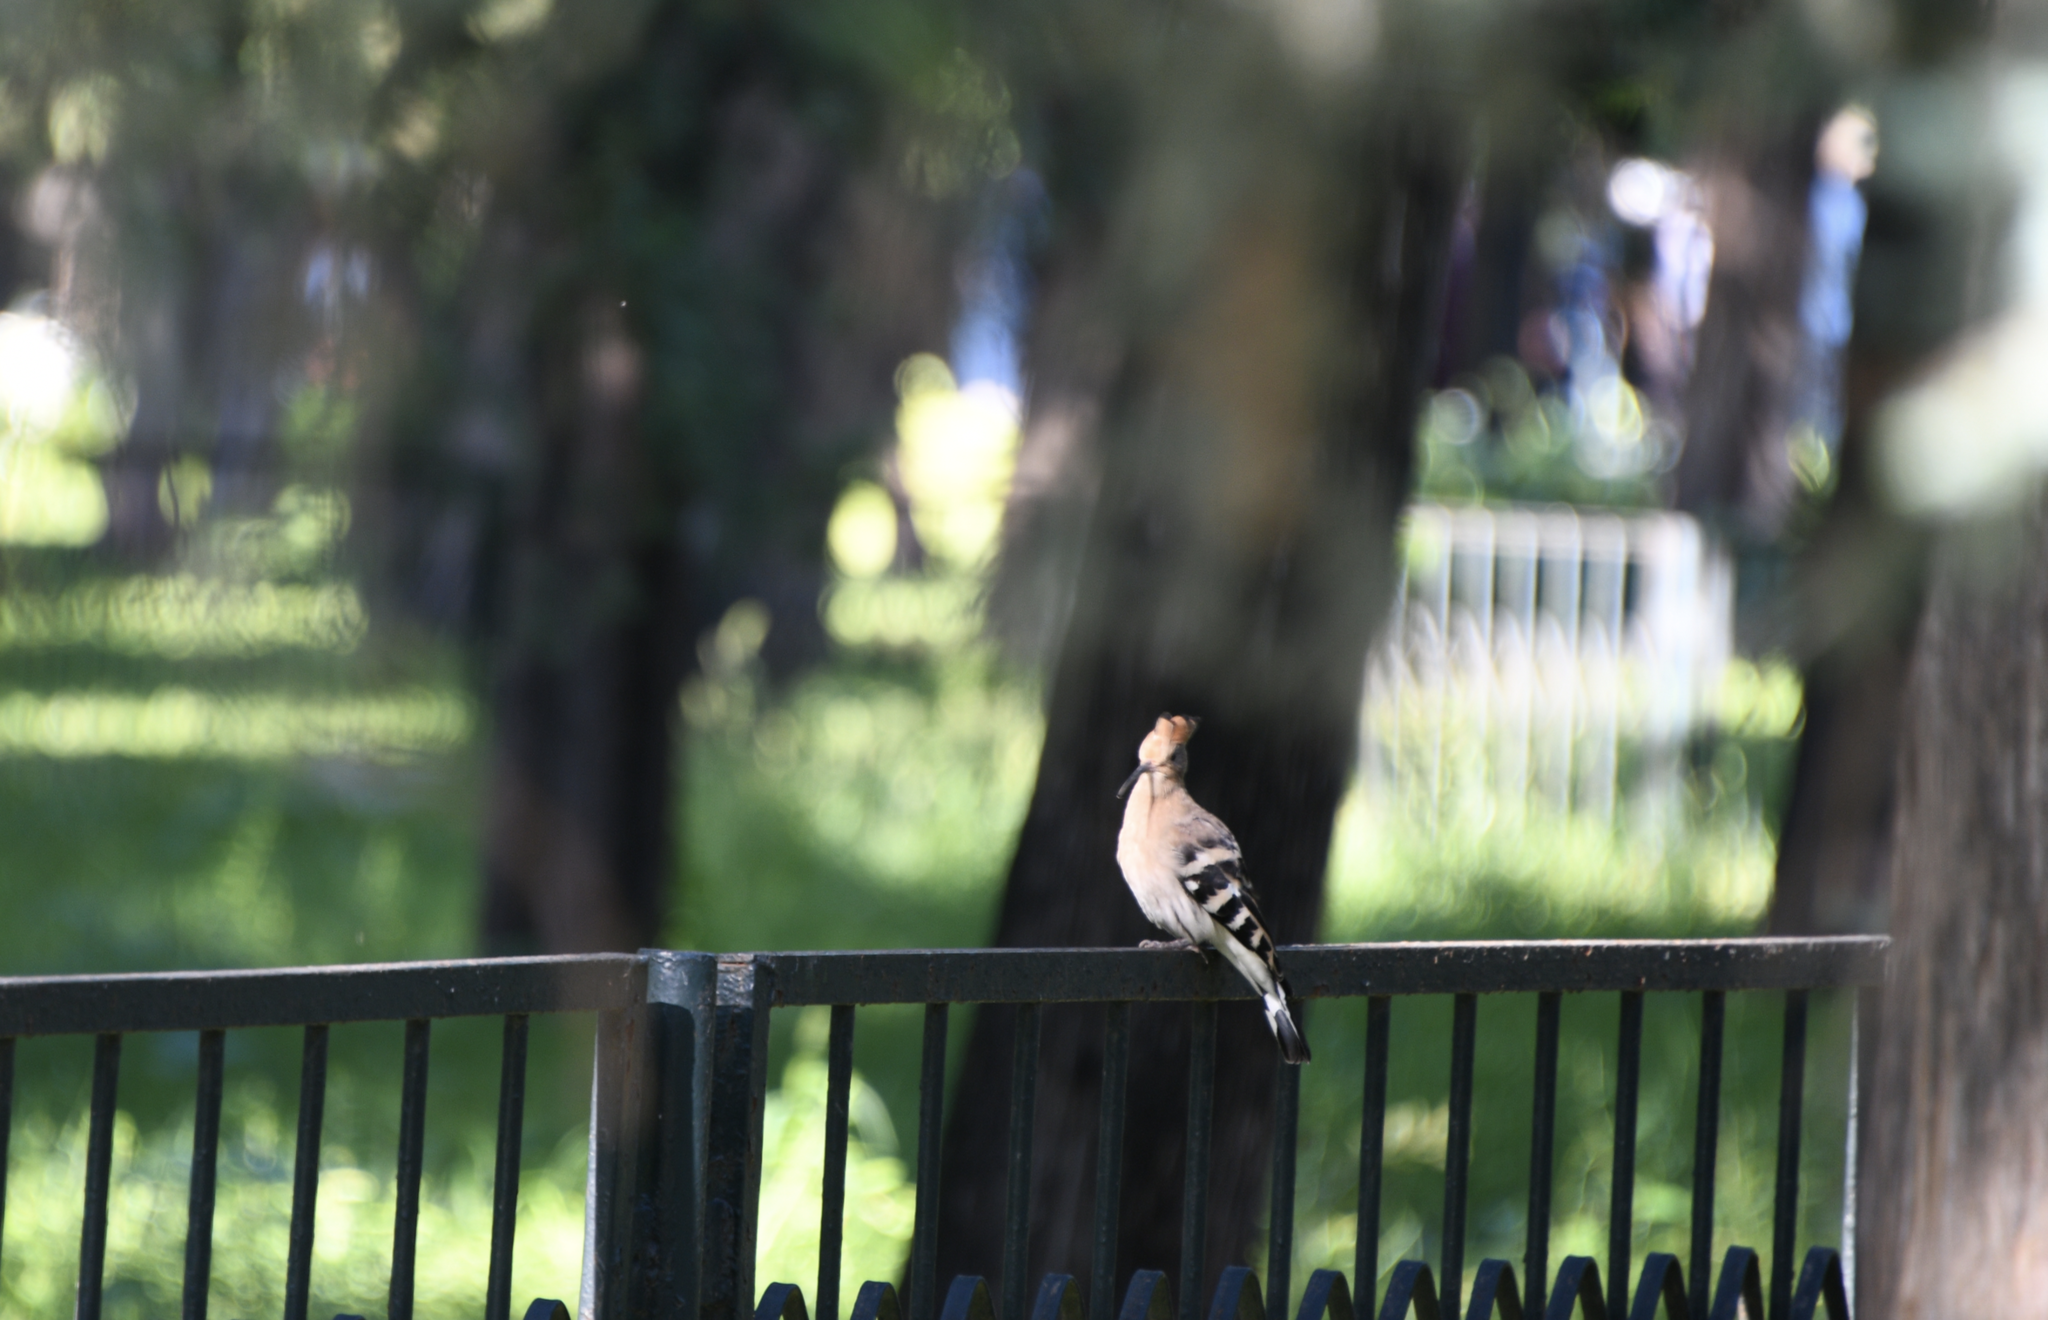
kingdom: Animalia
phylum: Chordata
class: Aves
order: Bucerotiformes
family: Upupidae
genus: Upupa
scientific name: Upupa epops
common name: Eurasian hoopoe
